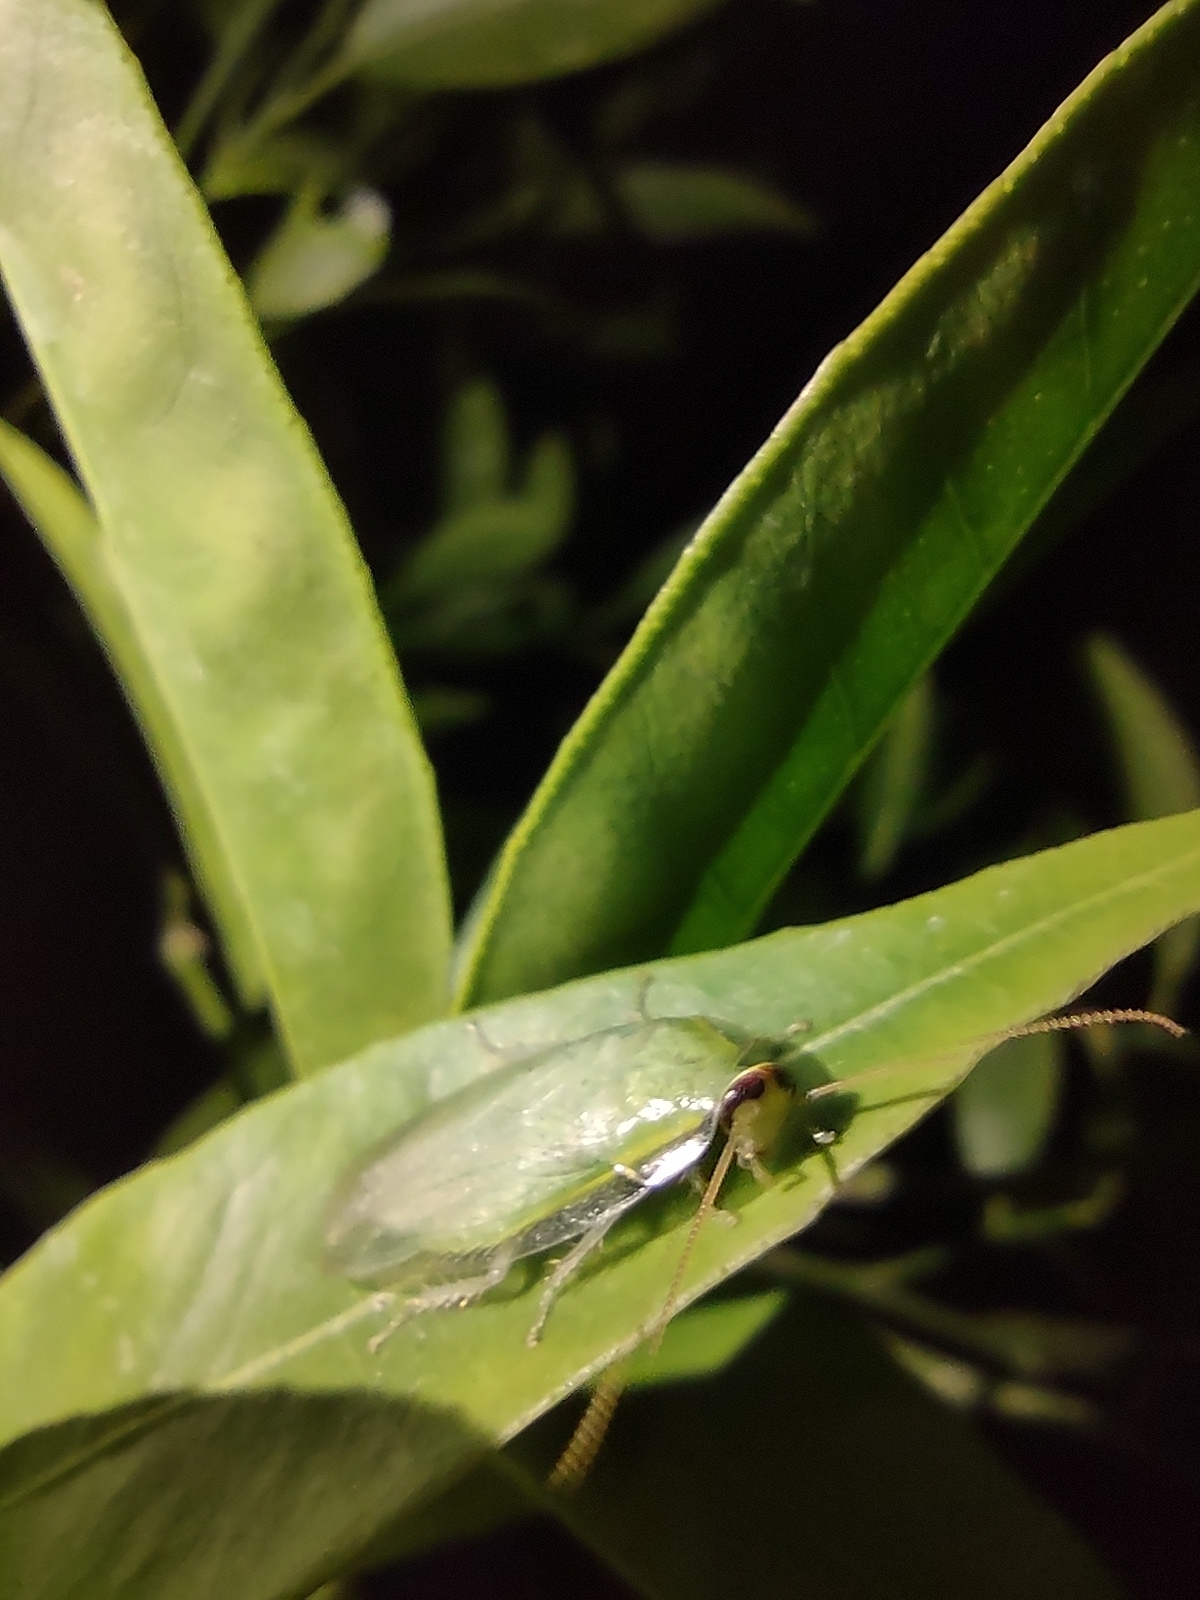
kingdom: Animalia
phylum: Arthropoda
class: Insecta
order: Blattodea
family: Blaberidae
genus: Panchlora
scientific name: Panchlora thalassina
